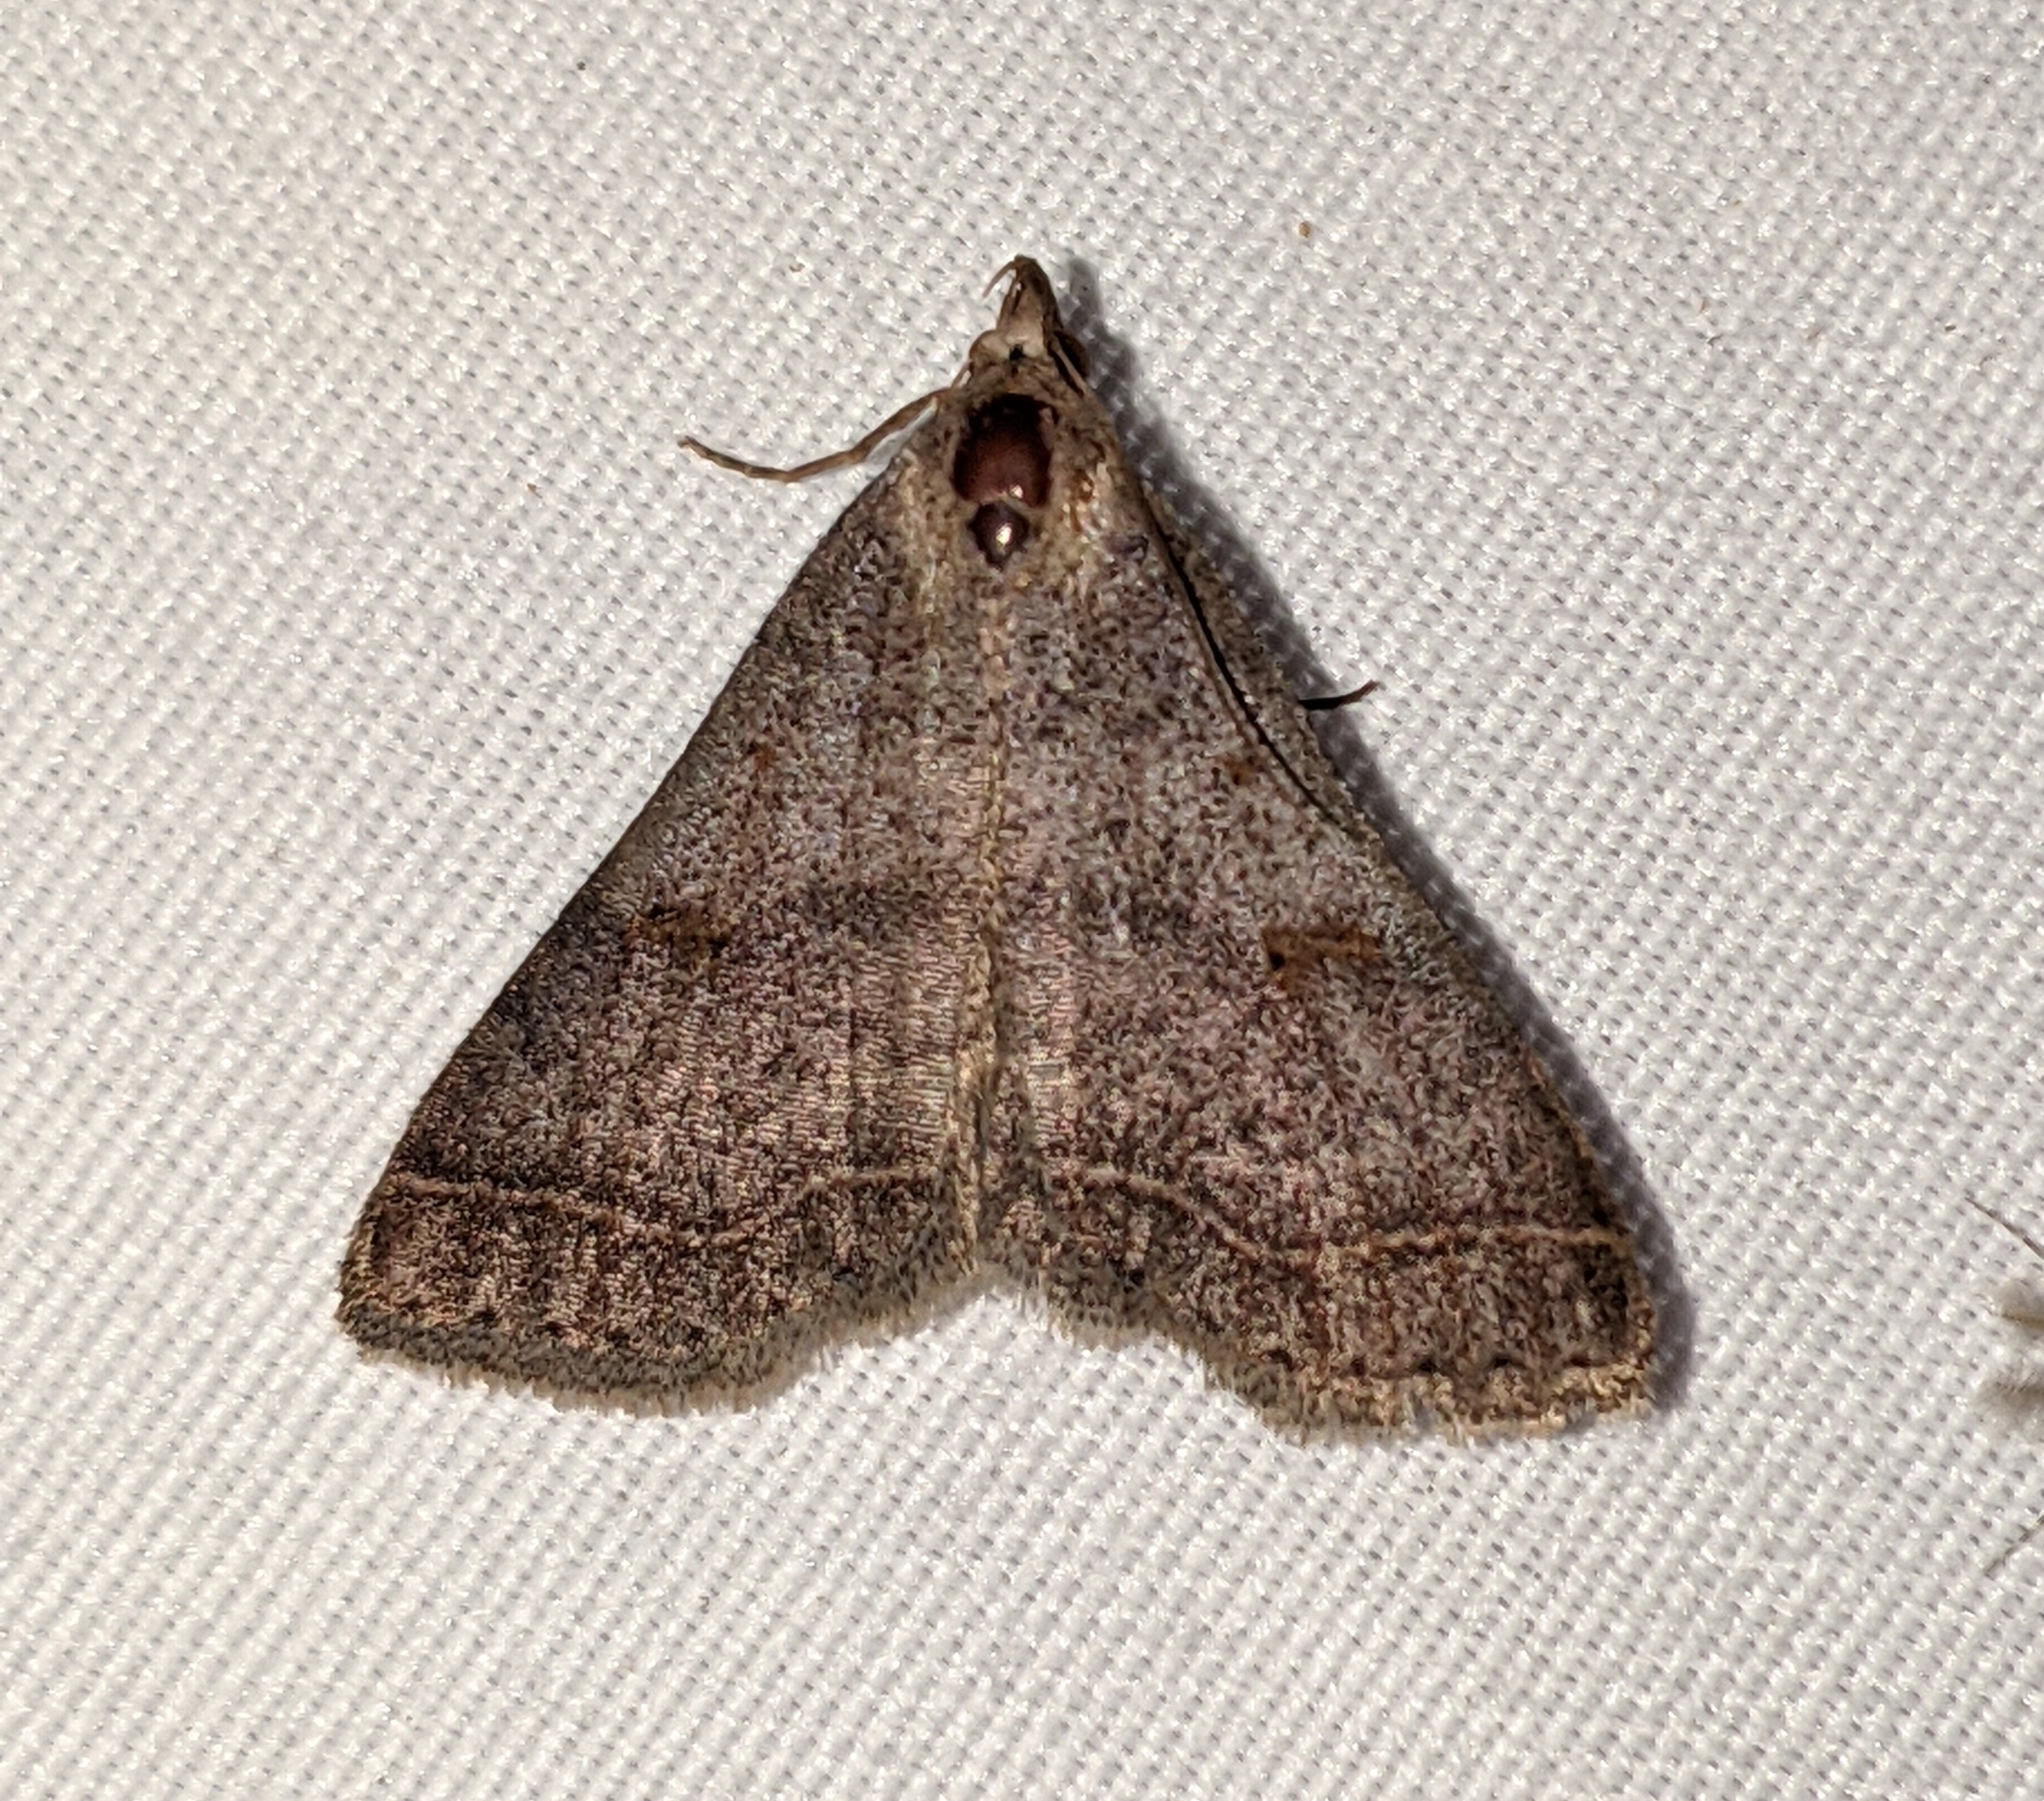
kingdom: Animalia
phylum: Arthropoda
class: Insecta
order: Lepidoptera
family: Erebidae
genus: Bleptina
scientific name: Bleptina caradrinalis
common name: Bent-winged owlet
